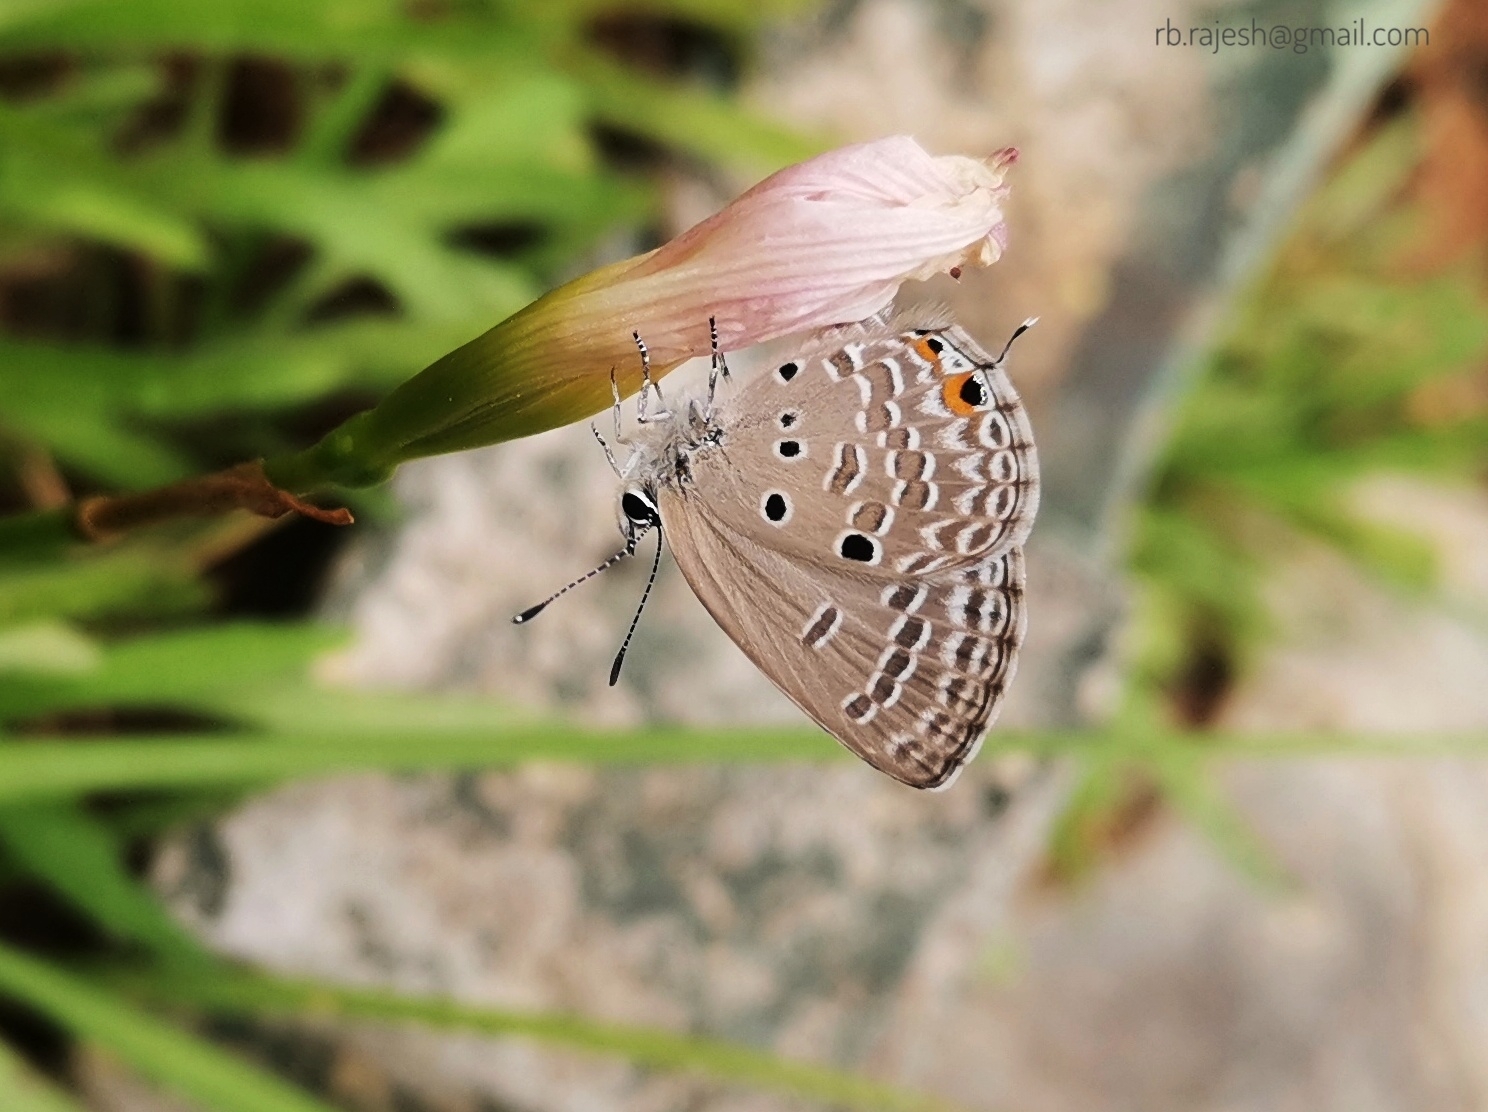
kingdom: Animalia
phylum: Arthropoda
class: Insecta
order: Lepidoptera
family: Lycaenidae
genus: Luthrodes
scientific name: Luthrodes pandava
